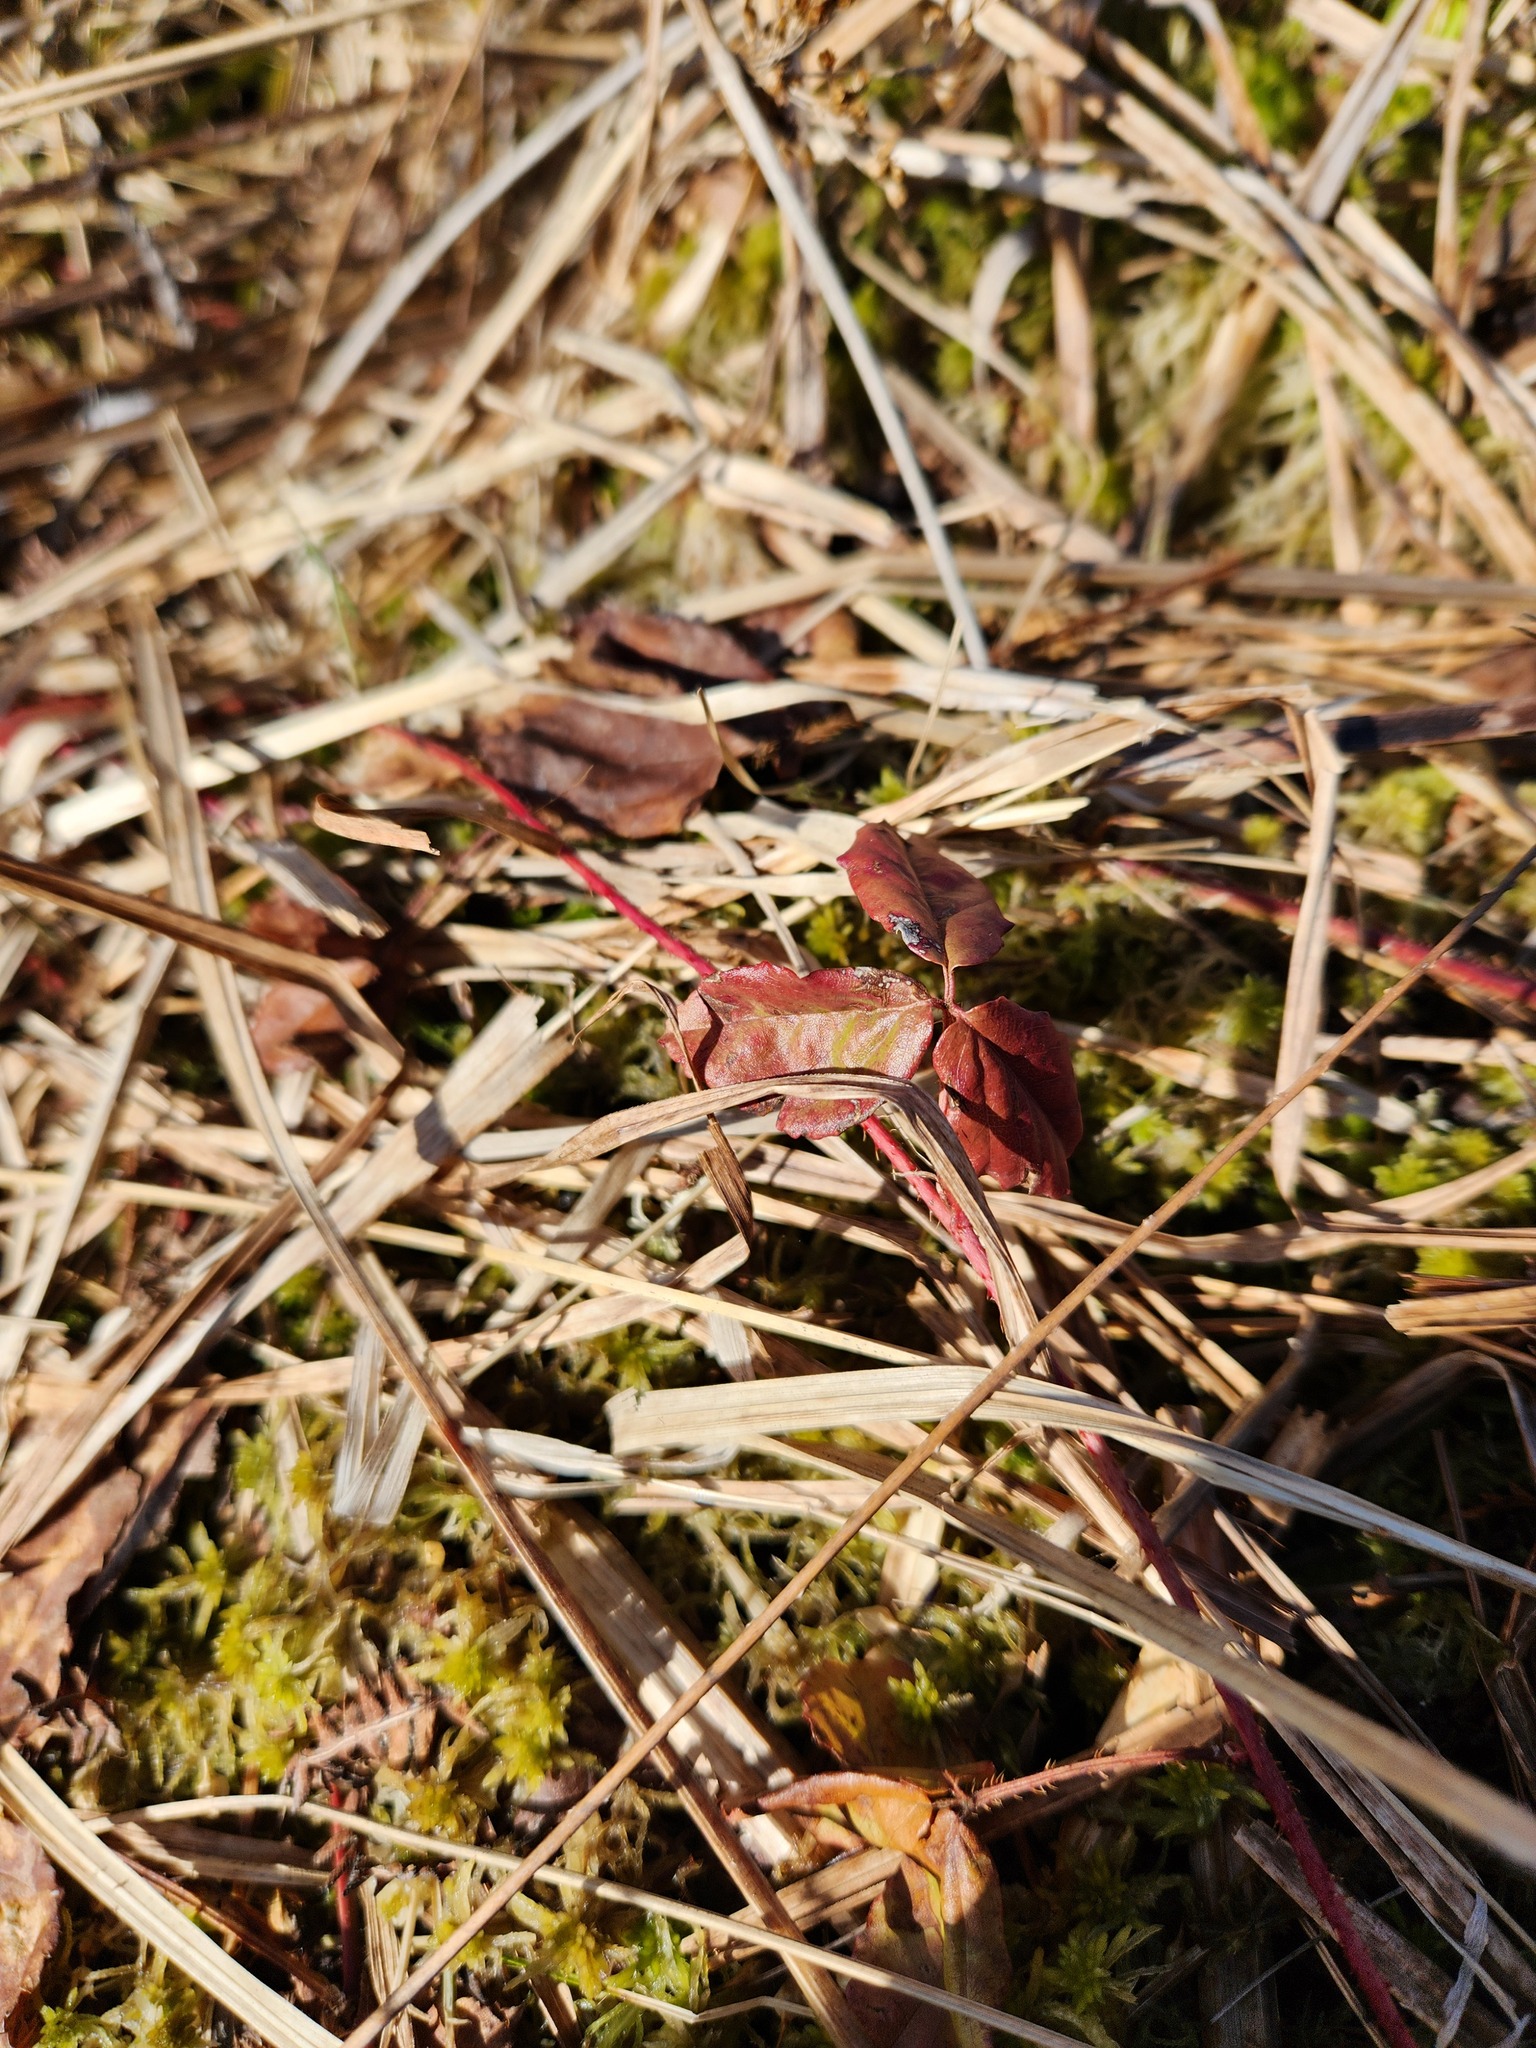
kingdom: Plantae
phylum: Tracheophyta
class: Magnoliopsida
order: Rosales
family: Rosaceae
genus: Rubus
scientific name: Rubus hispidus
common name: Running blackberry
